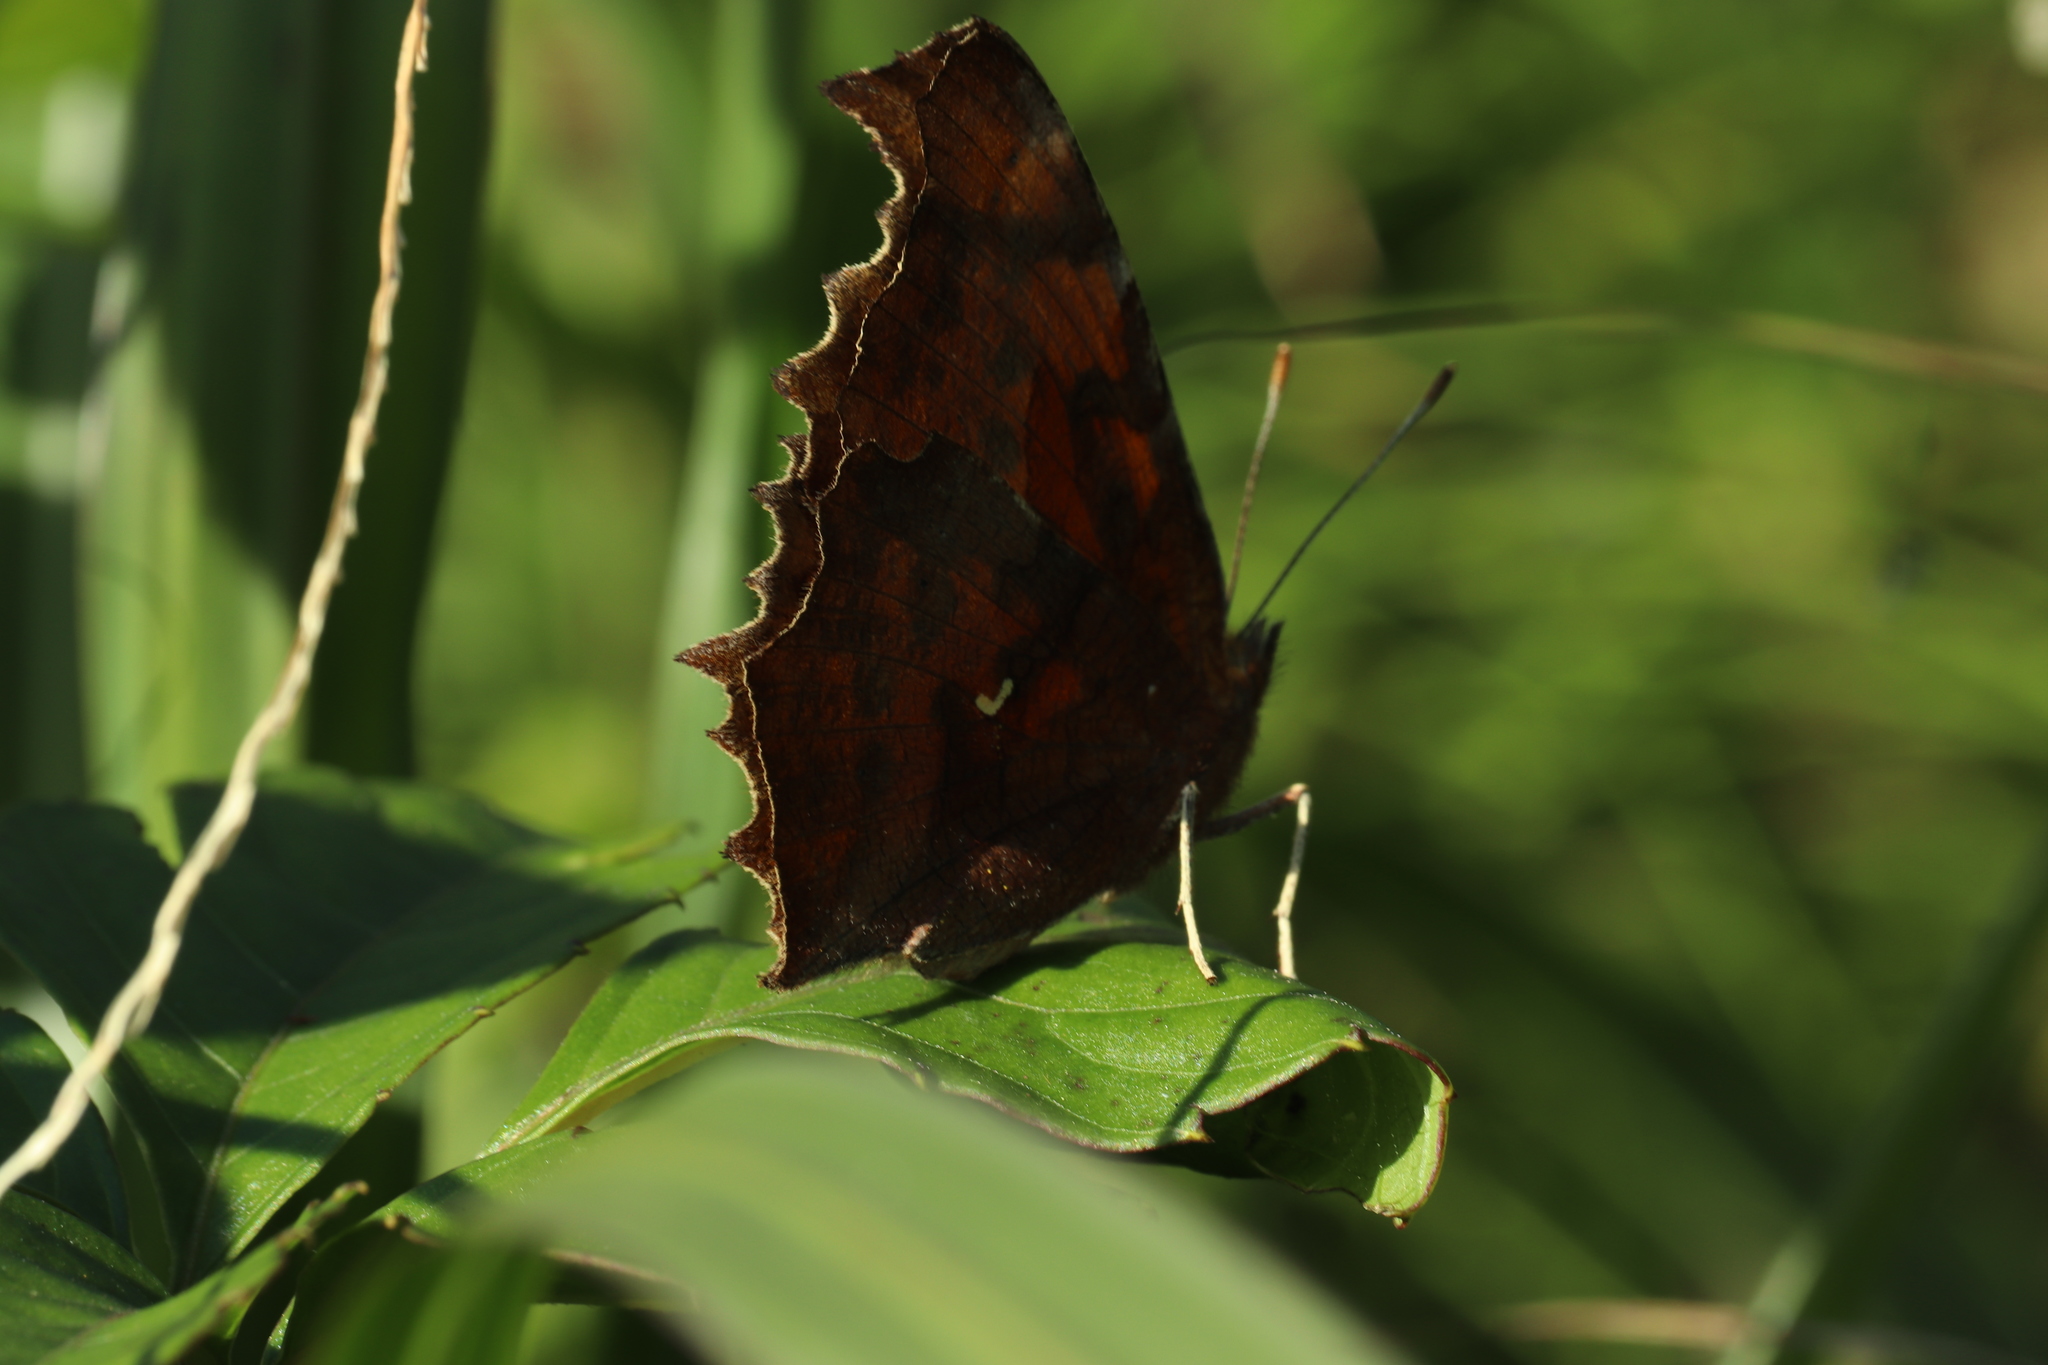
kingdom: Animalia
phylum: Arthropoda
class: Insecta
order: Lepidoptera
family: Nymphalidae
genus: Polygonia
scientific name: Polygonia c-aureum
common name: Asian comma
